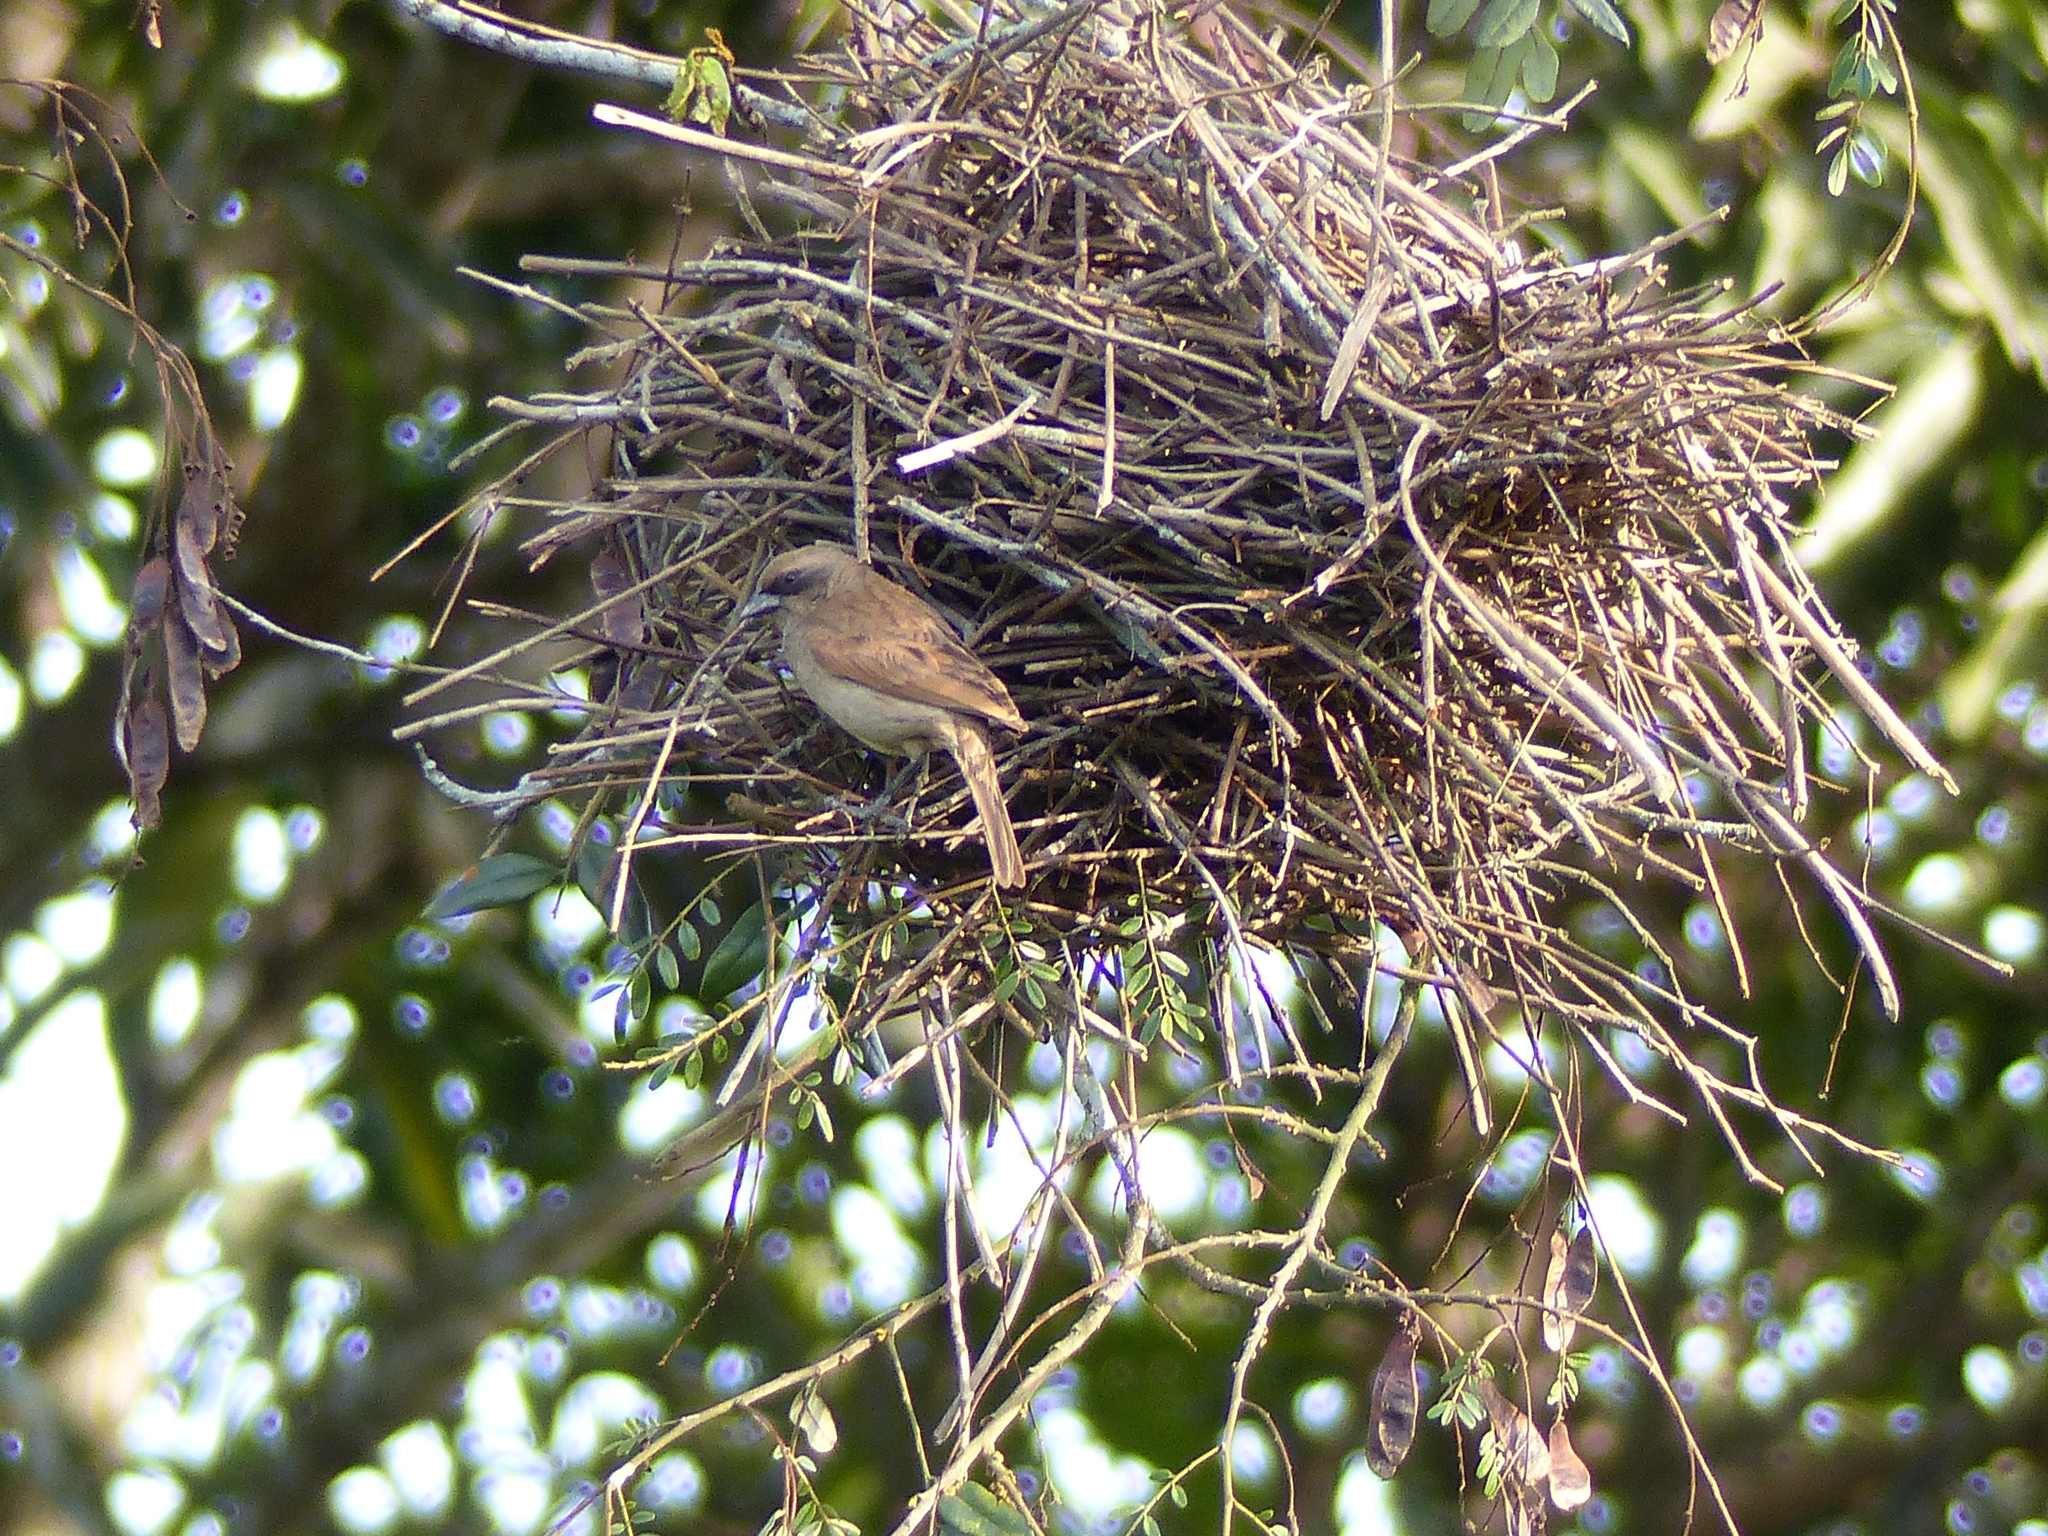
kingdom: Animalia
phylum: Chordata
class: Aves
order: Passeriformes
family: Icteridae
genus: Agelaioides
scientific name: Agelaioides badius
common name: Baywing
